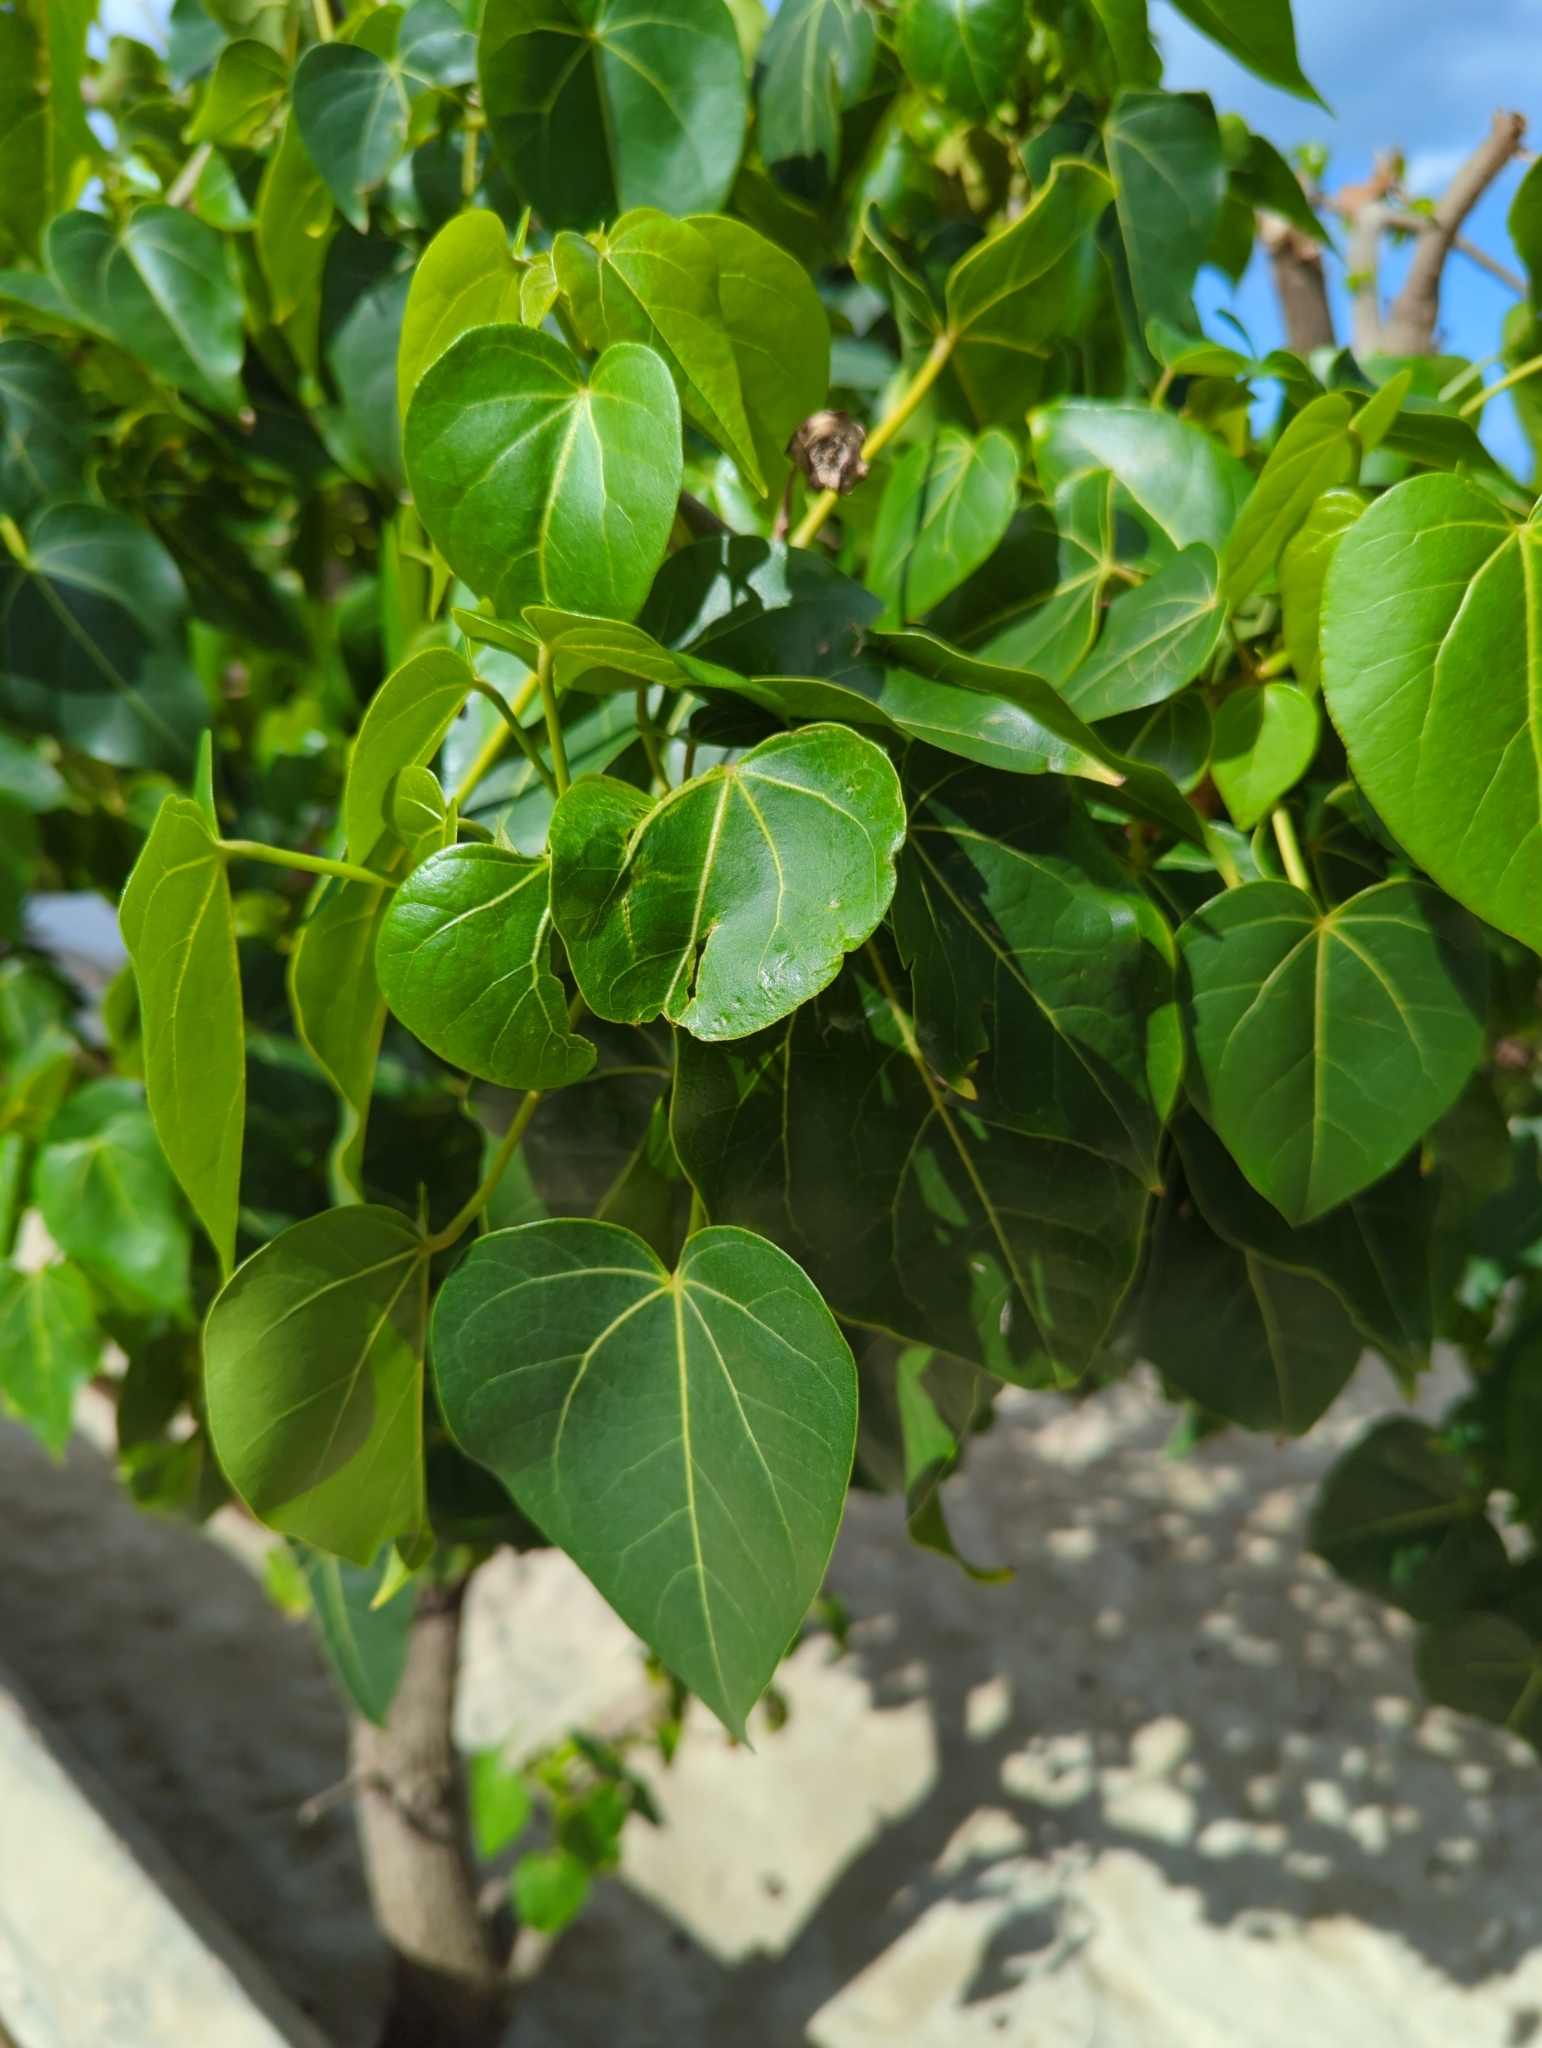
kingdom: Plantae
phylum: Tracheophyta
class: Magnoliopsida
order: Malvales
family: Malvaceae
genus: Thespesia
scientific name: Thespesia populnea
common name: Seaside mahoe
